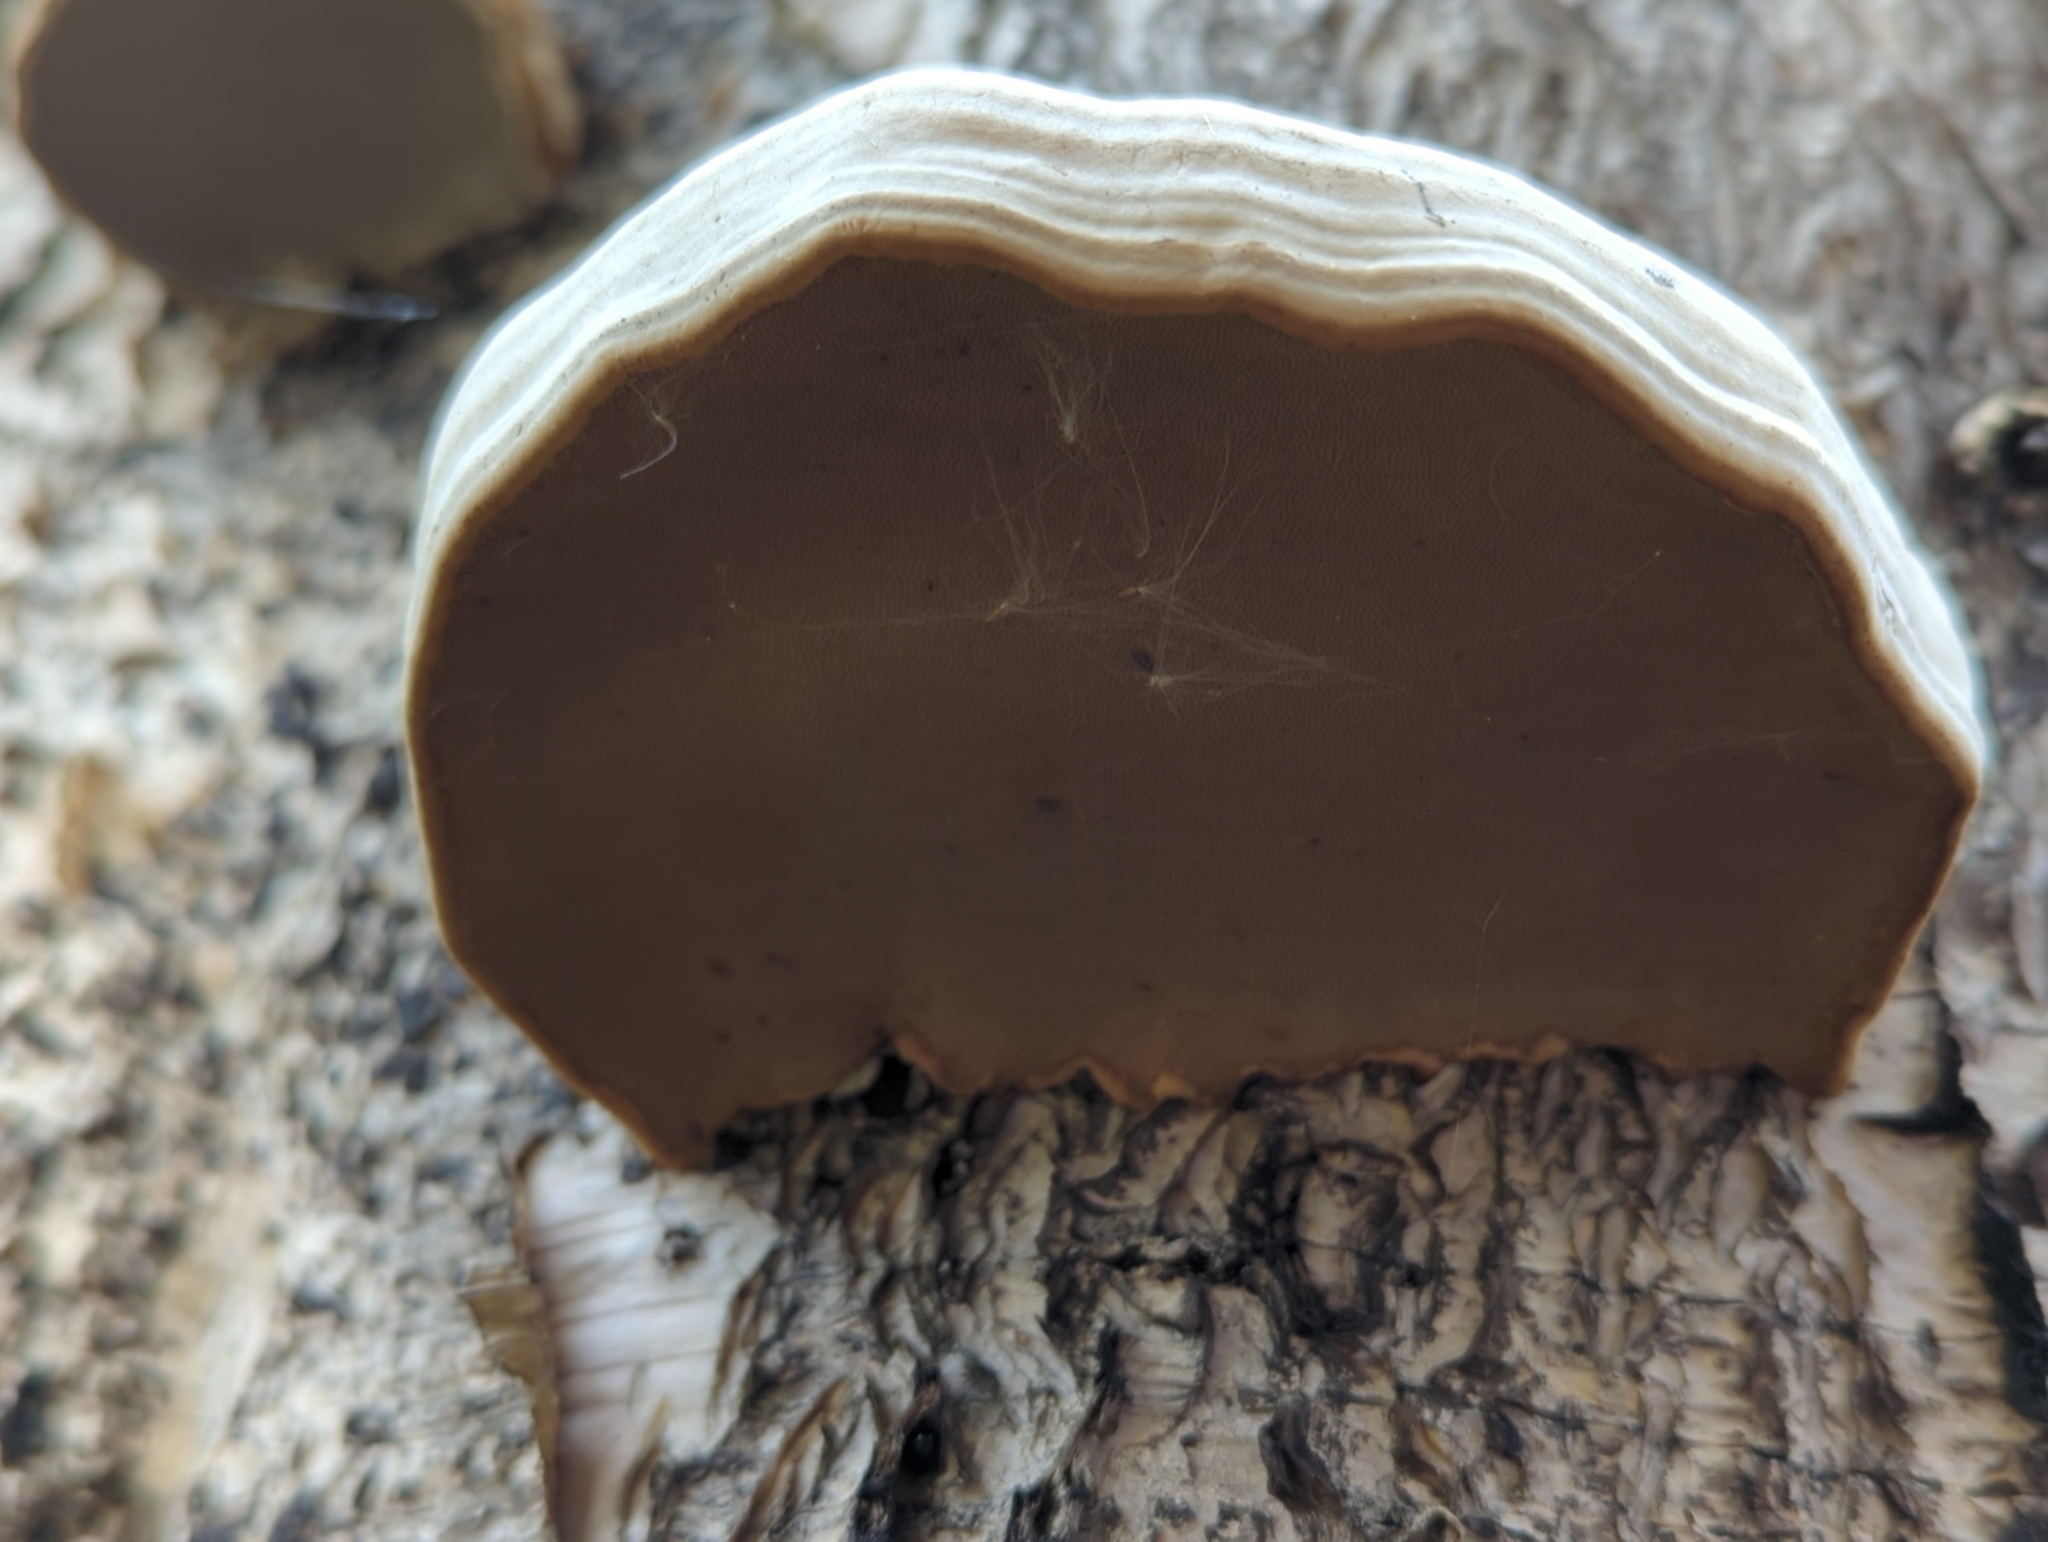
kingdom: Fungi
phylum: Basidiomycota
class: Agaricomycetes
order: Polyporales
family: Polyporaceae
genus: Fomes
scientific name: Fomes fomentarius
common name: Hoof fungus
